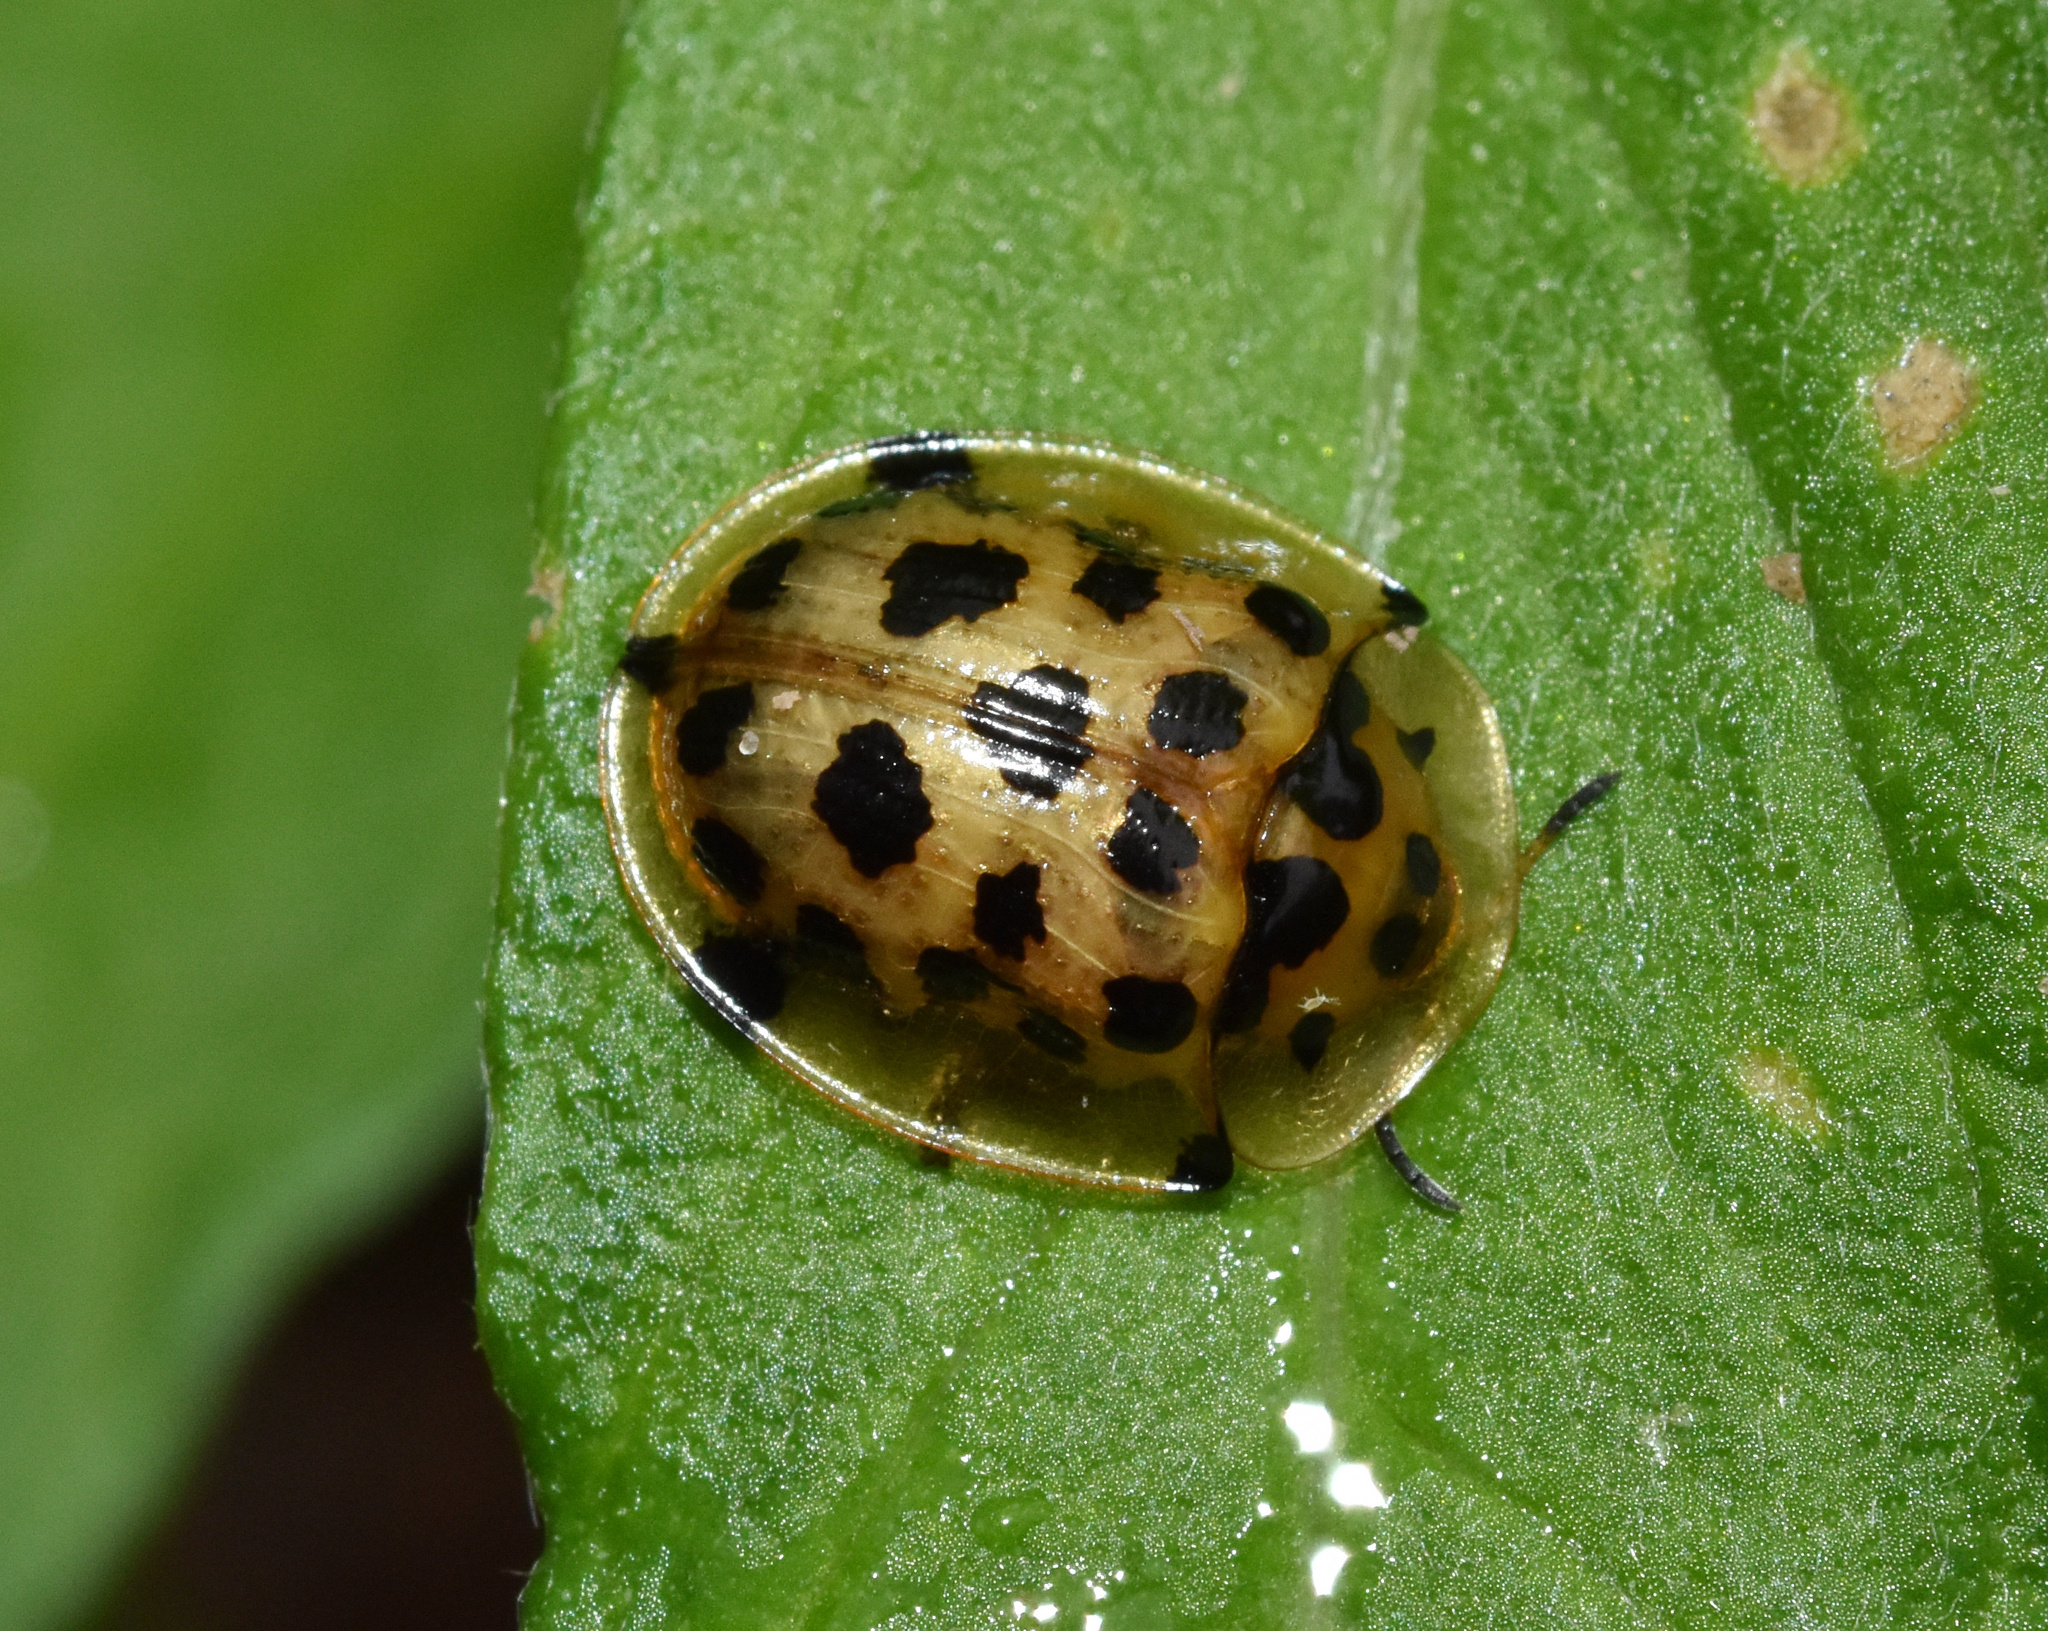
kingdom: Animalia
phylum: Arthropoda
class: Insecta
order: Coleoptera
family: Chrysomelidae
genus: Aethiopocassis
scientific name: Aethiopocassis vigintimaculata
